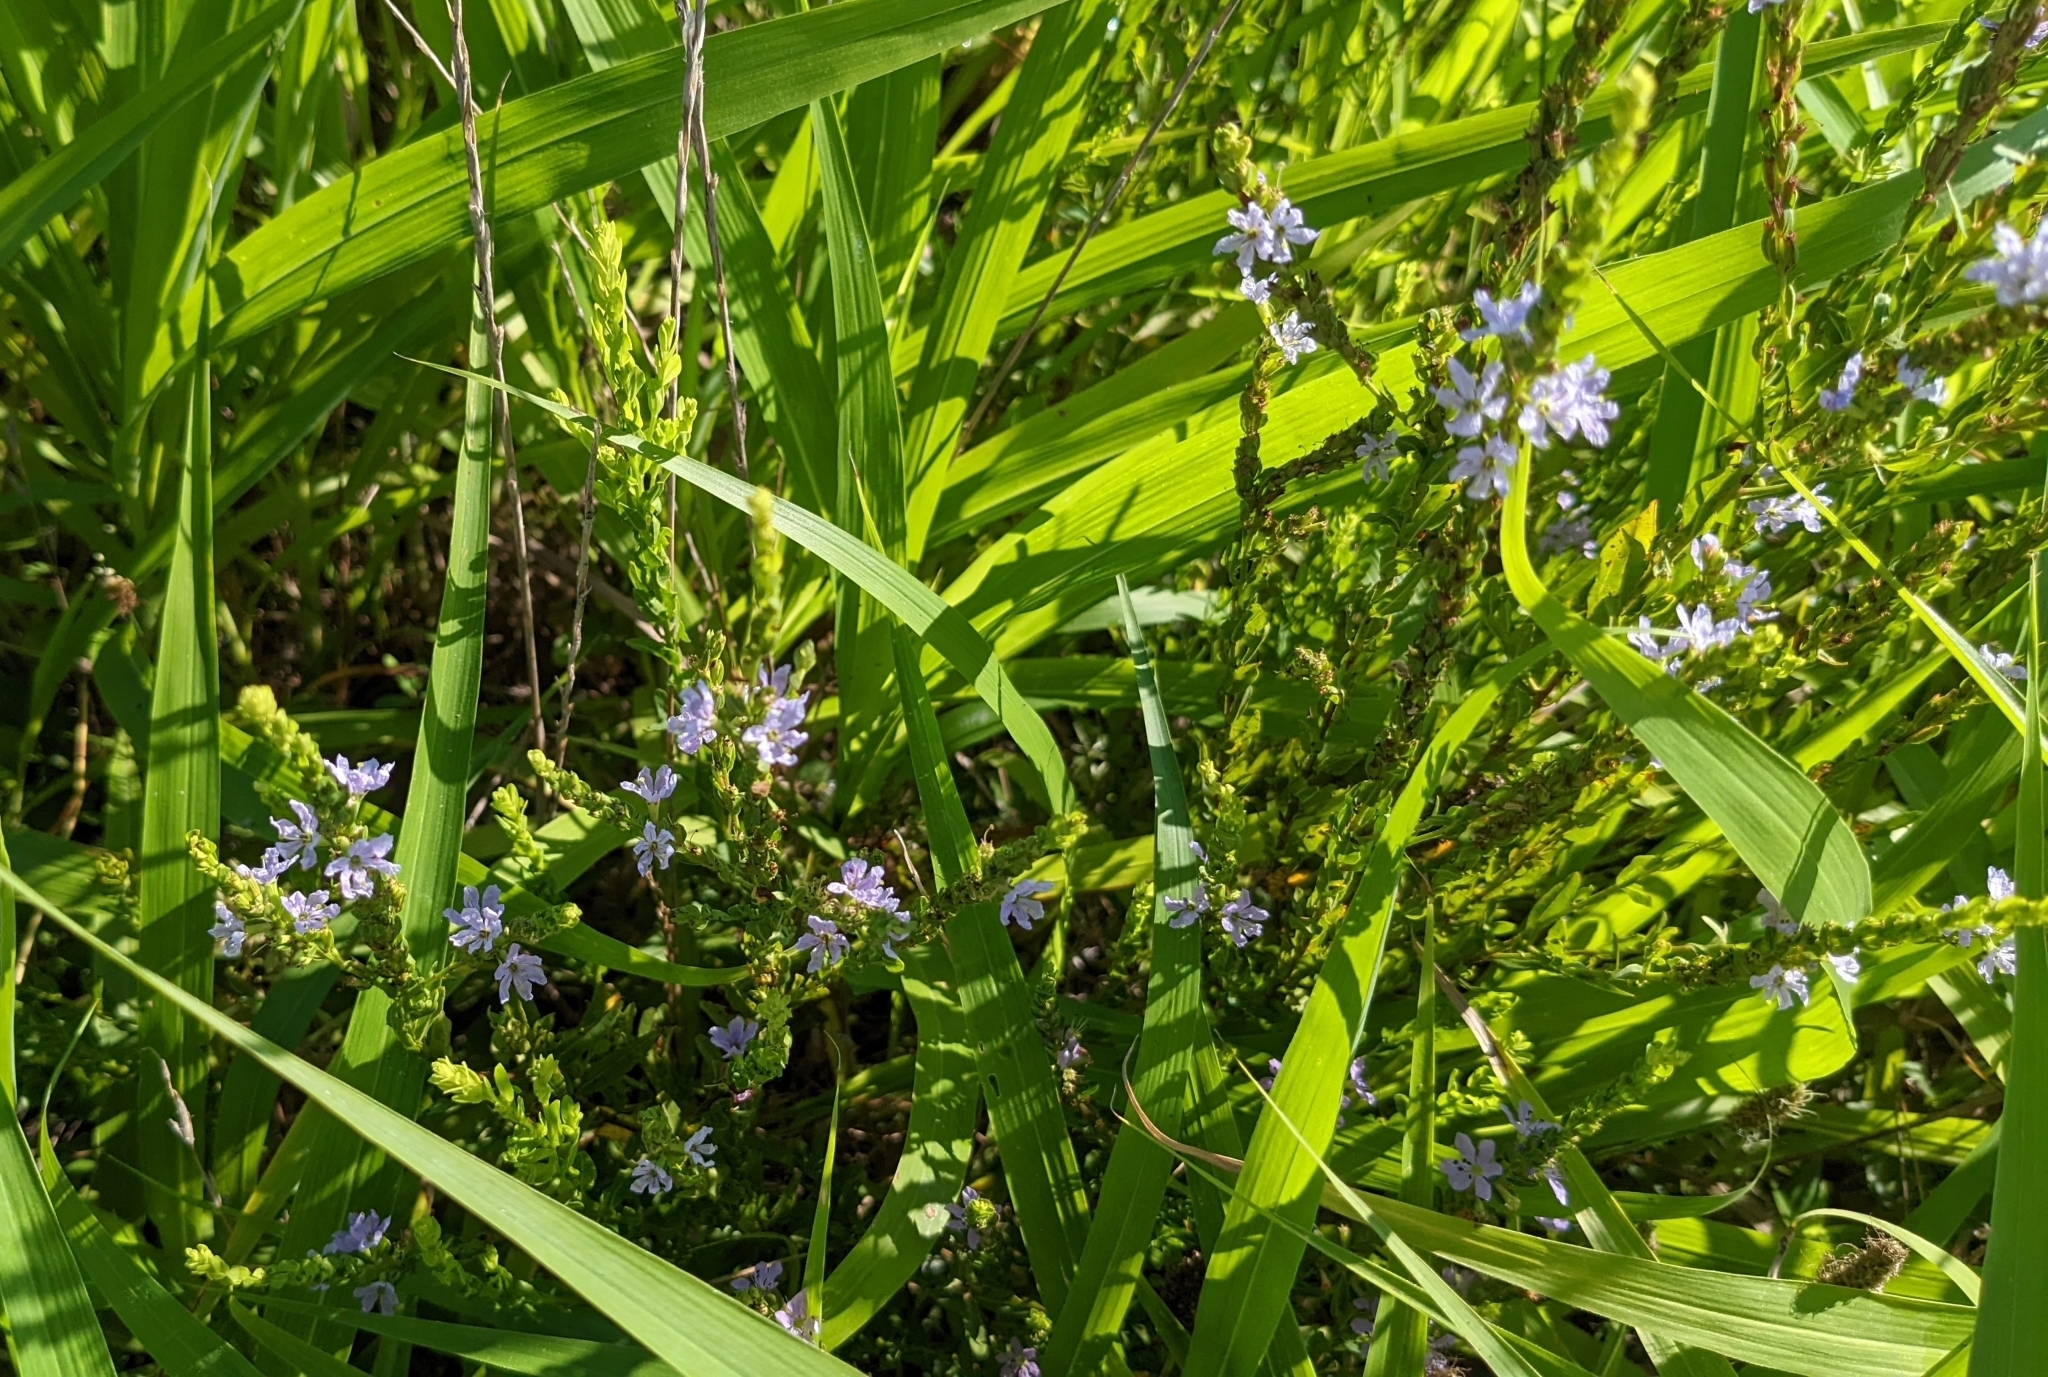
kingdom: Plantae
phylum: Tracheophyta
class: Magnoliopsida
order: Myrtales
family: Lythraceae
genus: Lythrum
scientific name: Lythrum alatum
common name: Winged loosestrife
